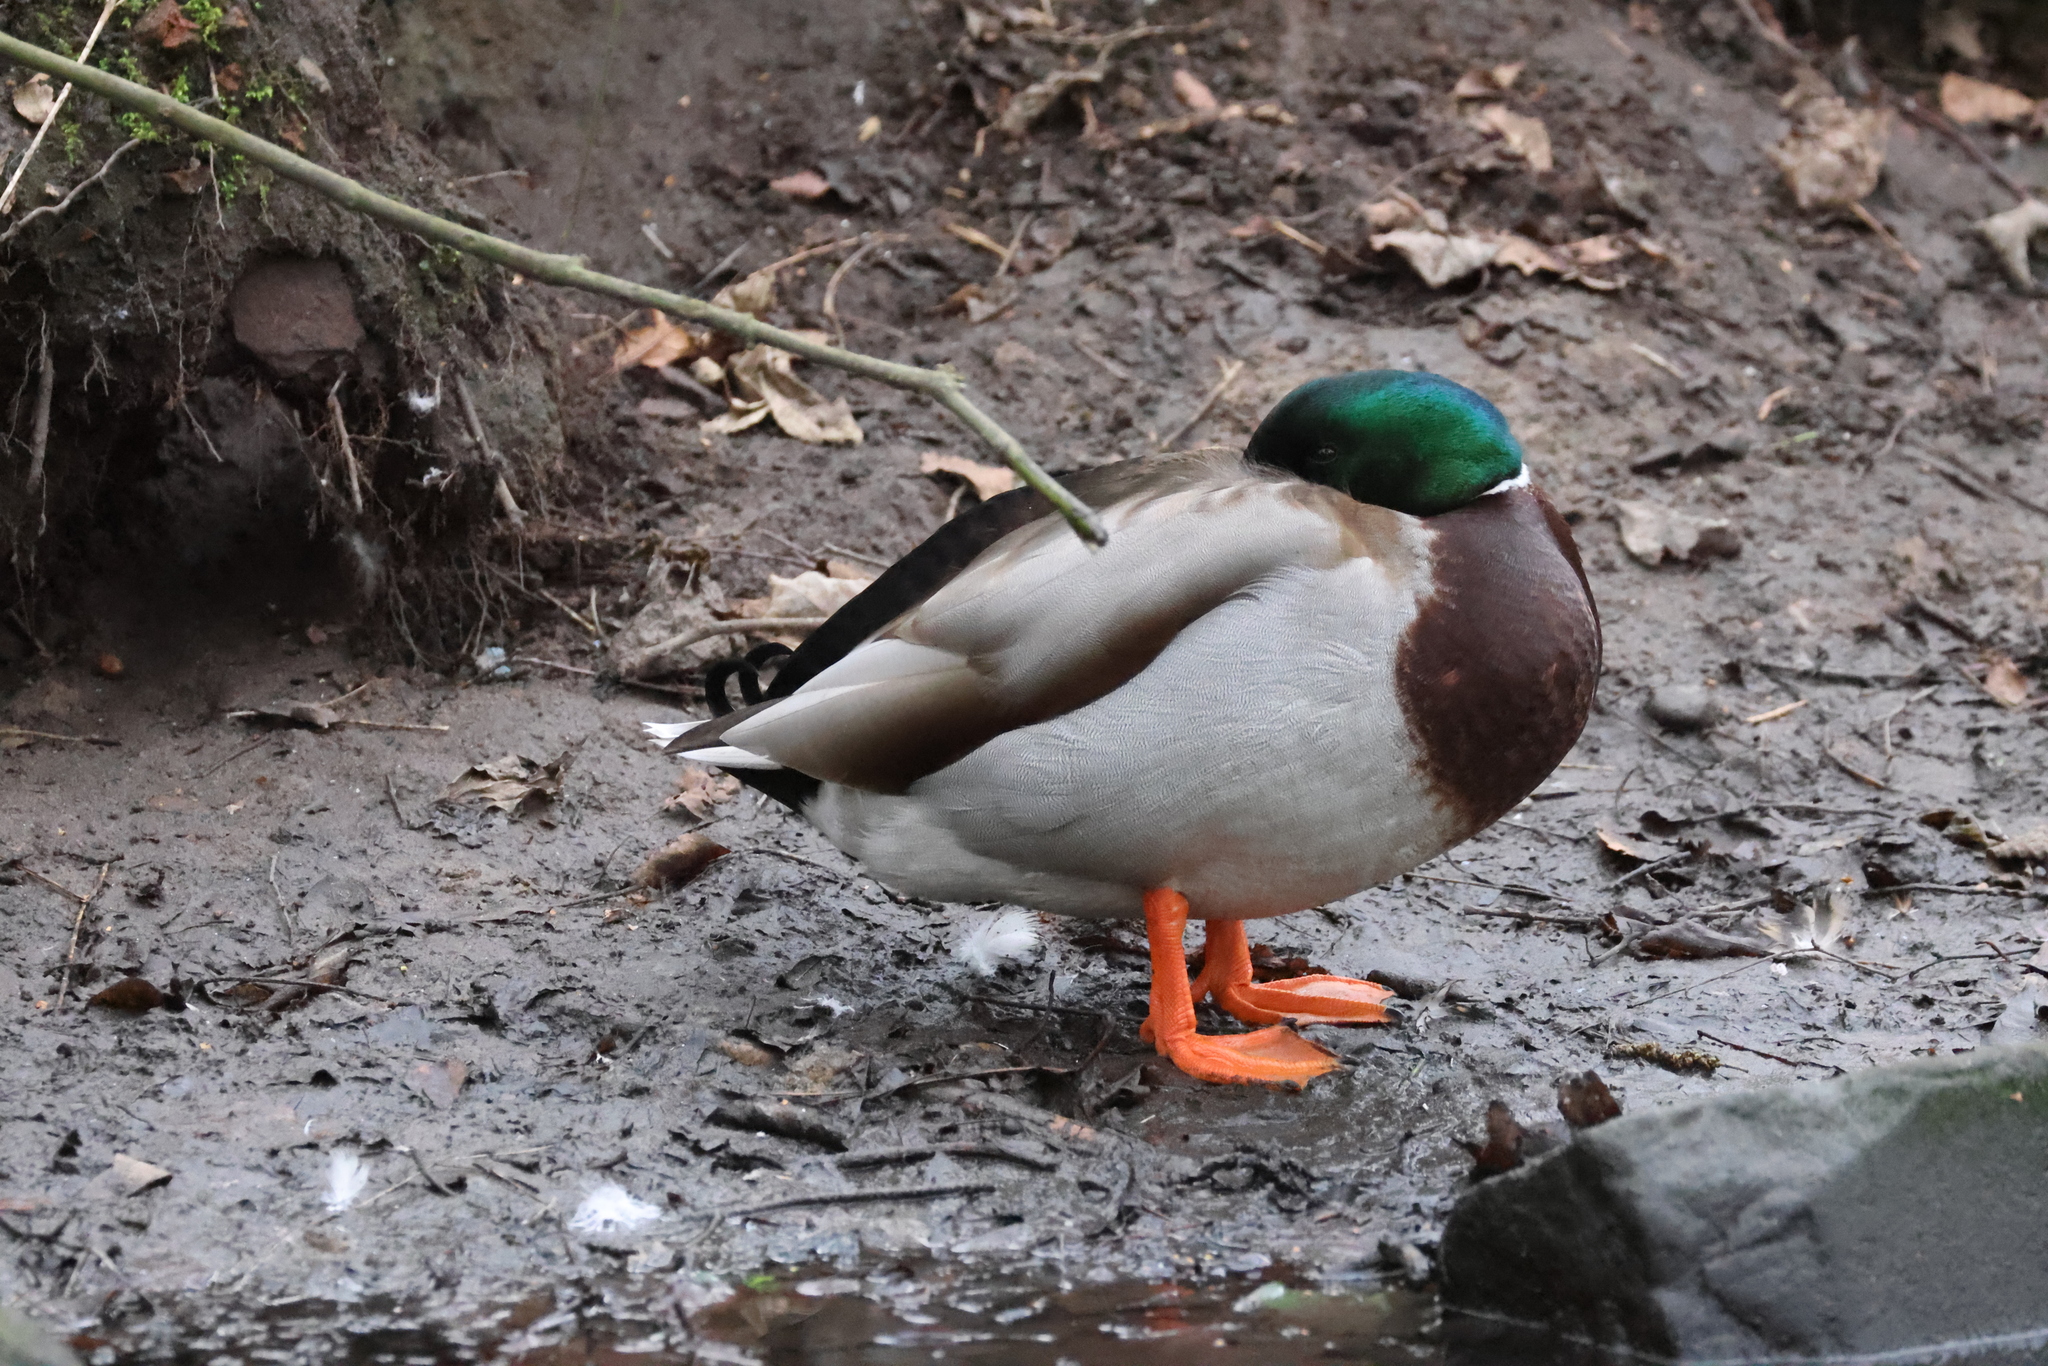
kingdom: Animalia
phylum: Chordata
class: Aves
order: Anseriformes
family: Anatidae
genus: Anas
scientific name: Anas platyrhynchos
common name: Mallard
